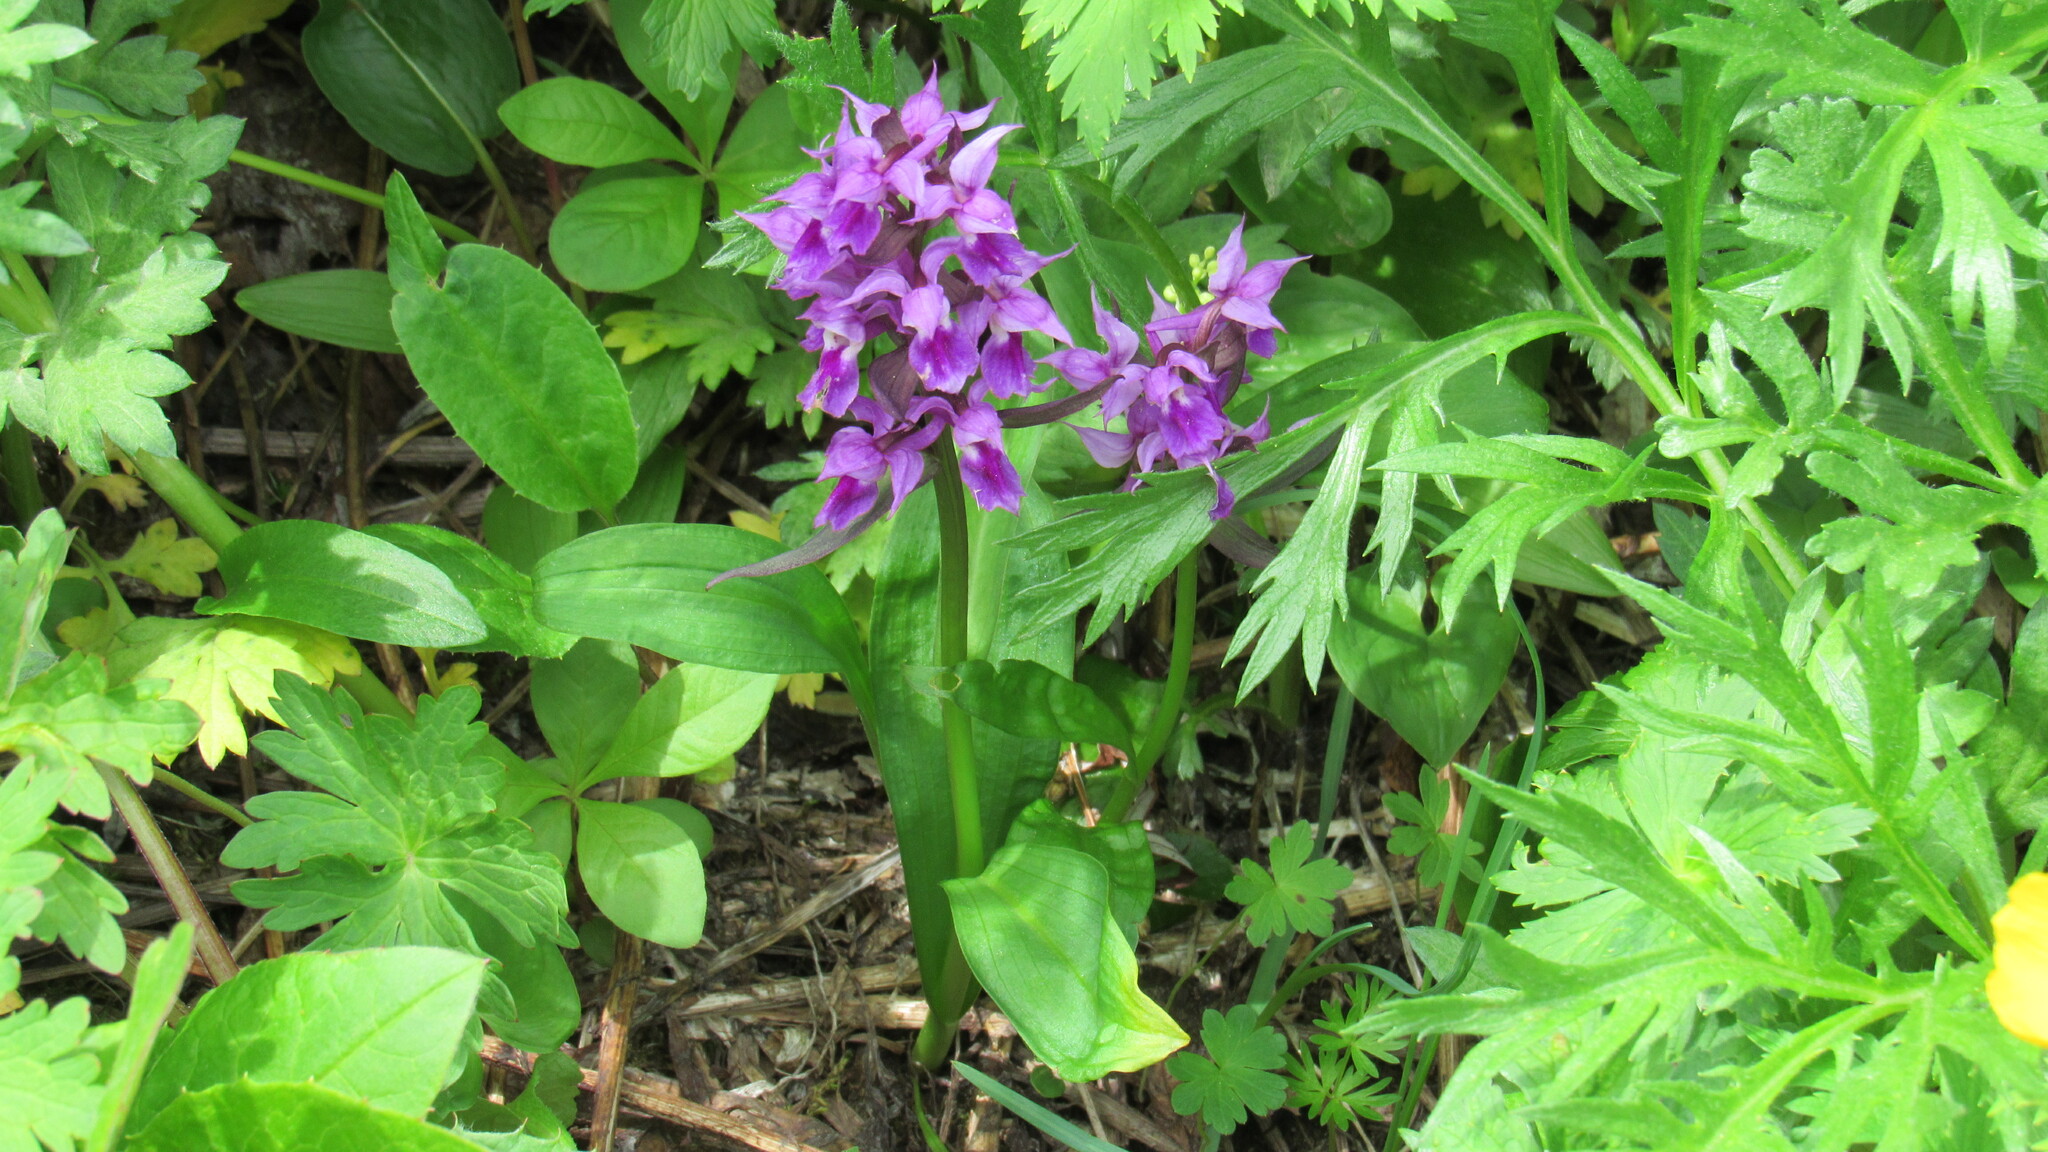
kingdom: Plantae
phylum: Tracheophyta
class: Liliopsida
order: Asparagales
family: Orchidaceae
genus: Dactylorhiza
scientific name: Dactylorhiza aristata
